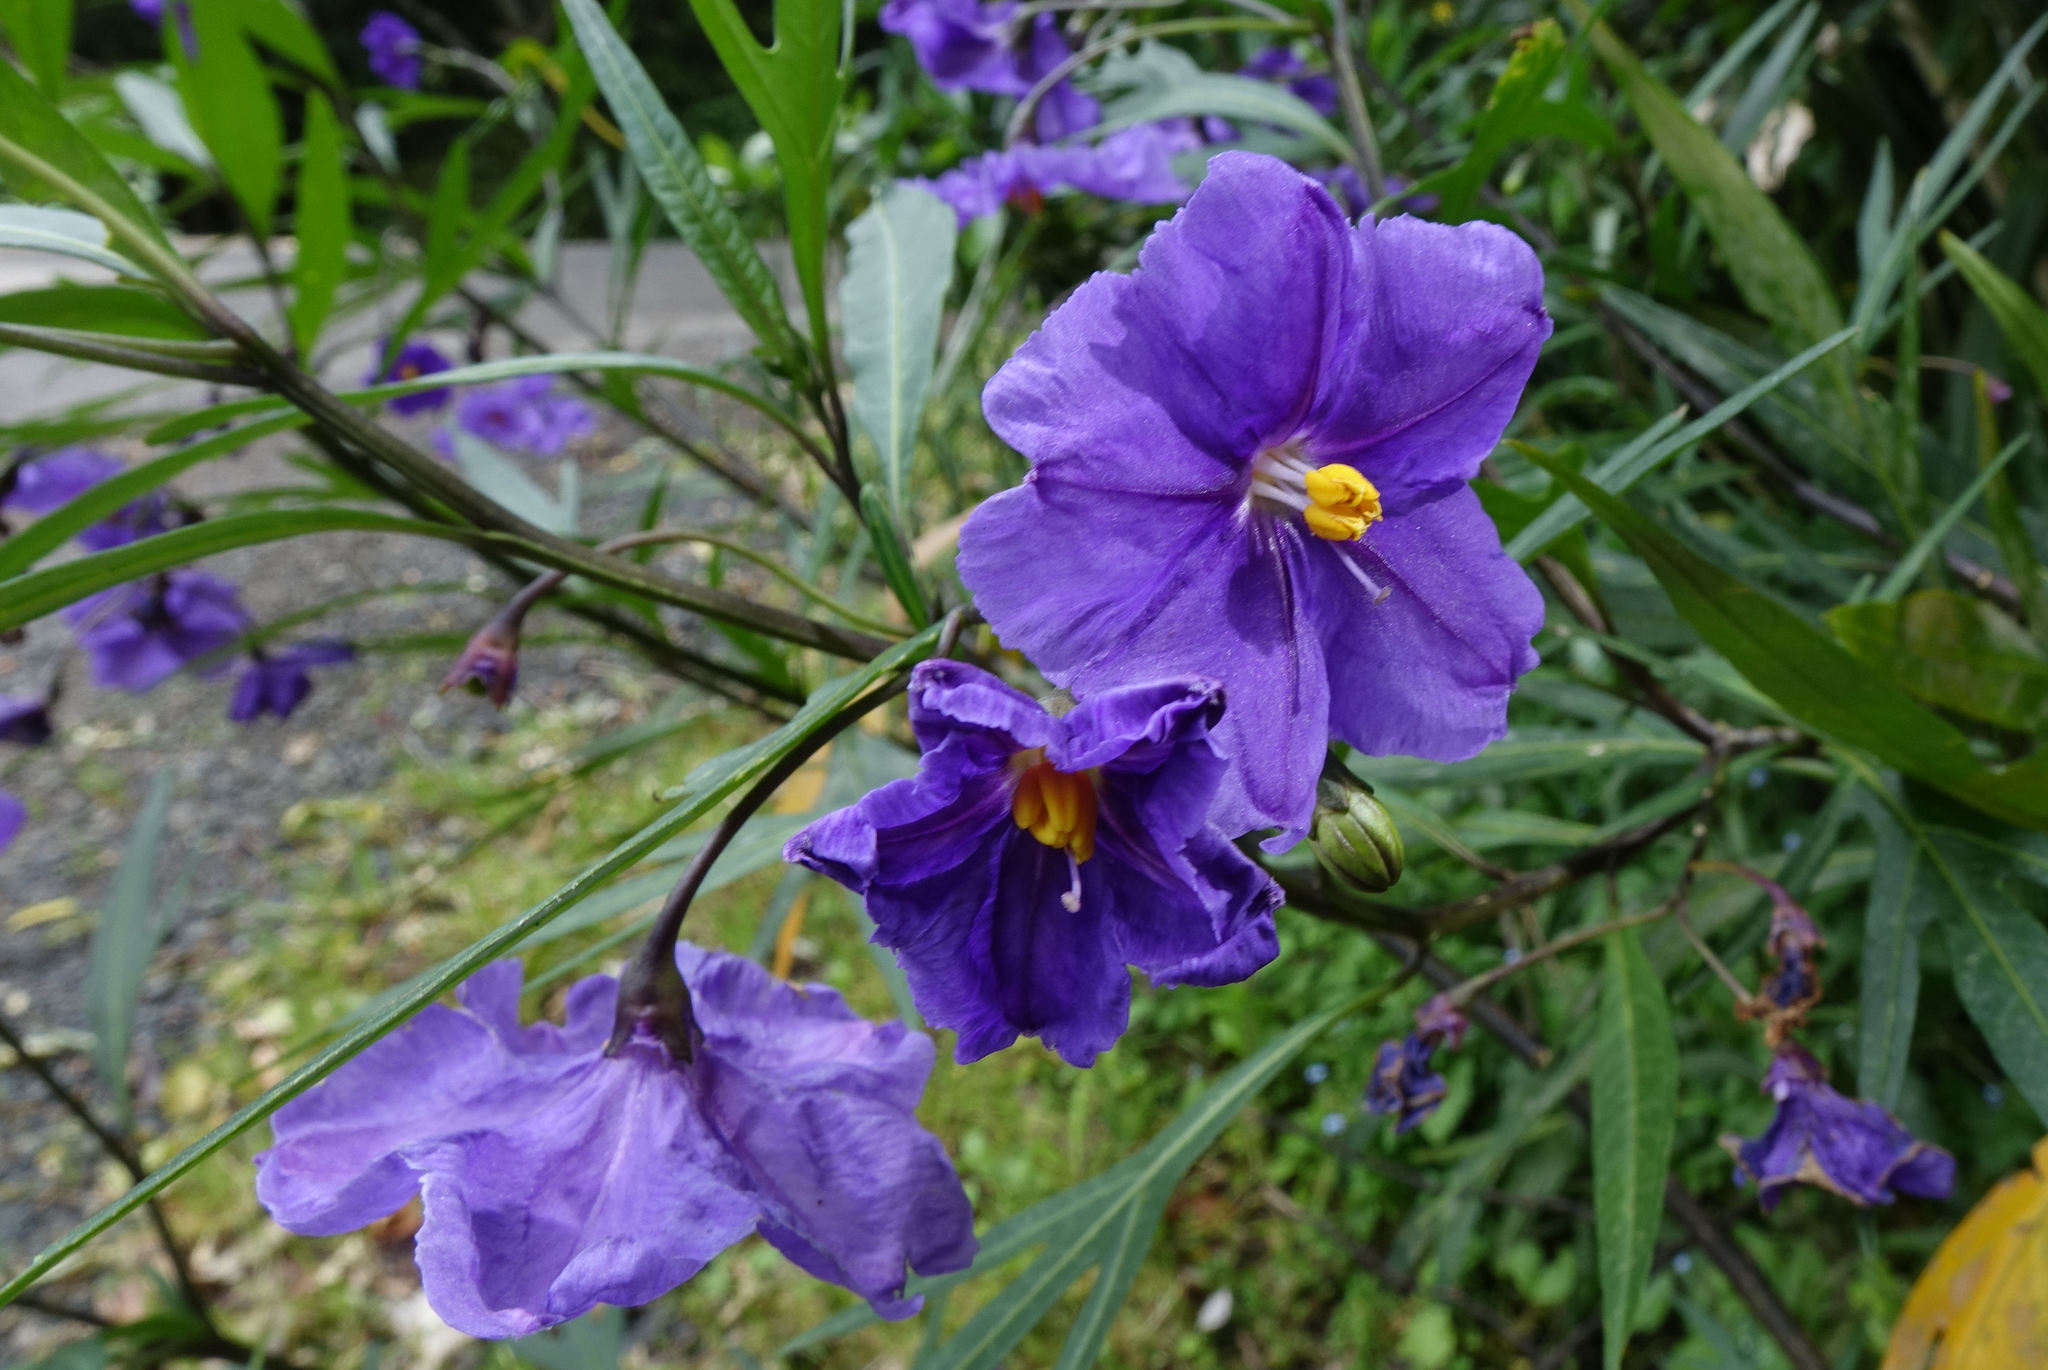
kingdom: Plantae
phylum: Tracheophyta
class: Magnoliopsida
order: Solanales
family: Solanaceae
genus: Solanum
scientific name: Solanum laciniatum
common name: Kangaroo-apple
